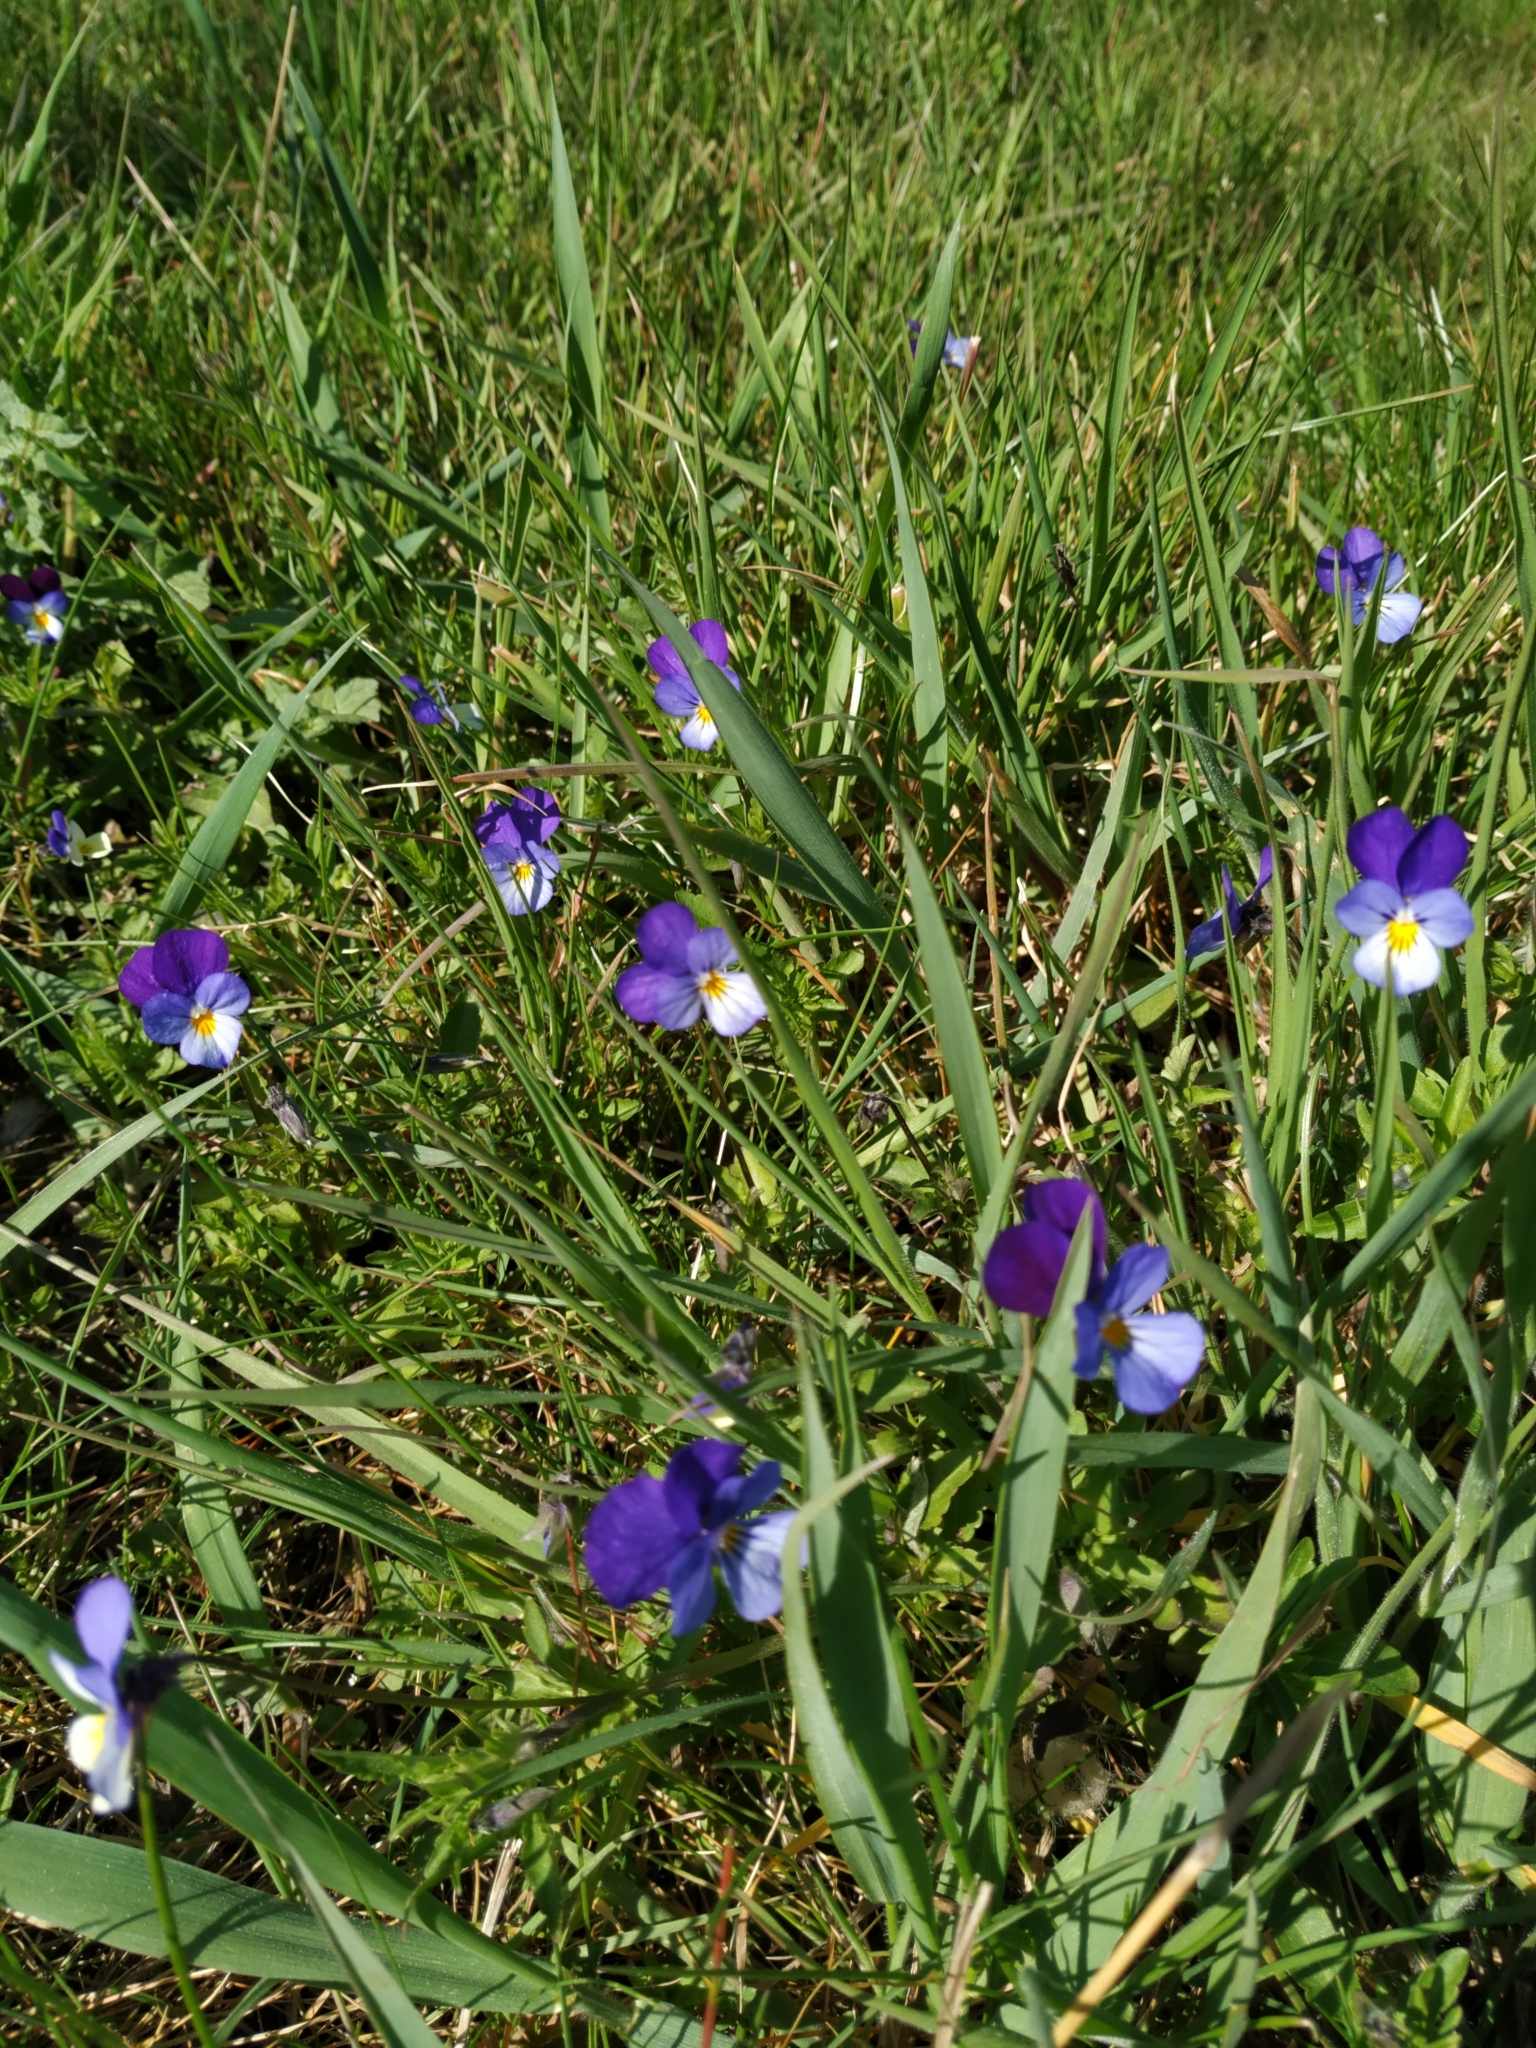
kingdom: Plantae
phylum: Tracheophyta
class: Magnoliopsida
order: Malpighiales
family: Violaceae
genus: Viola
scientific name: Viola tricolor
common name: Pansy
